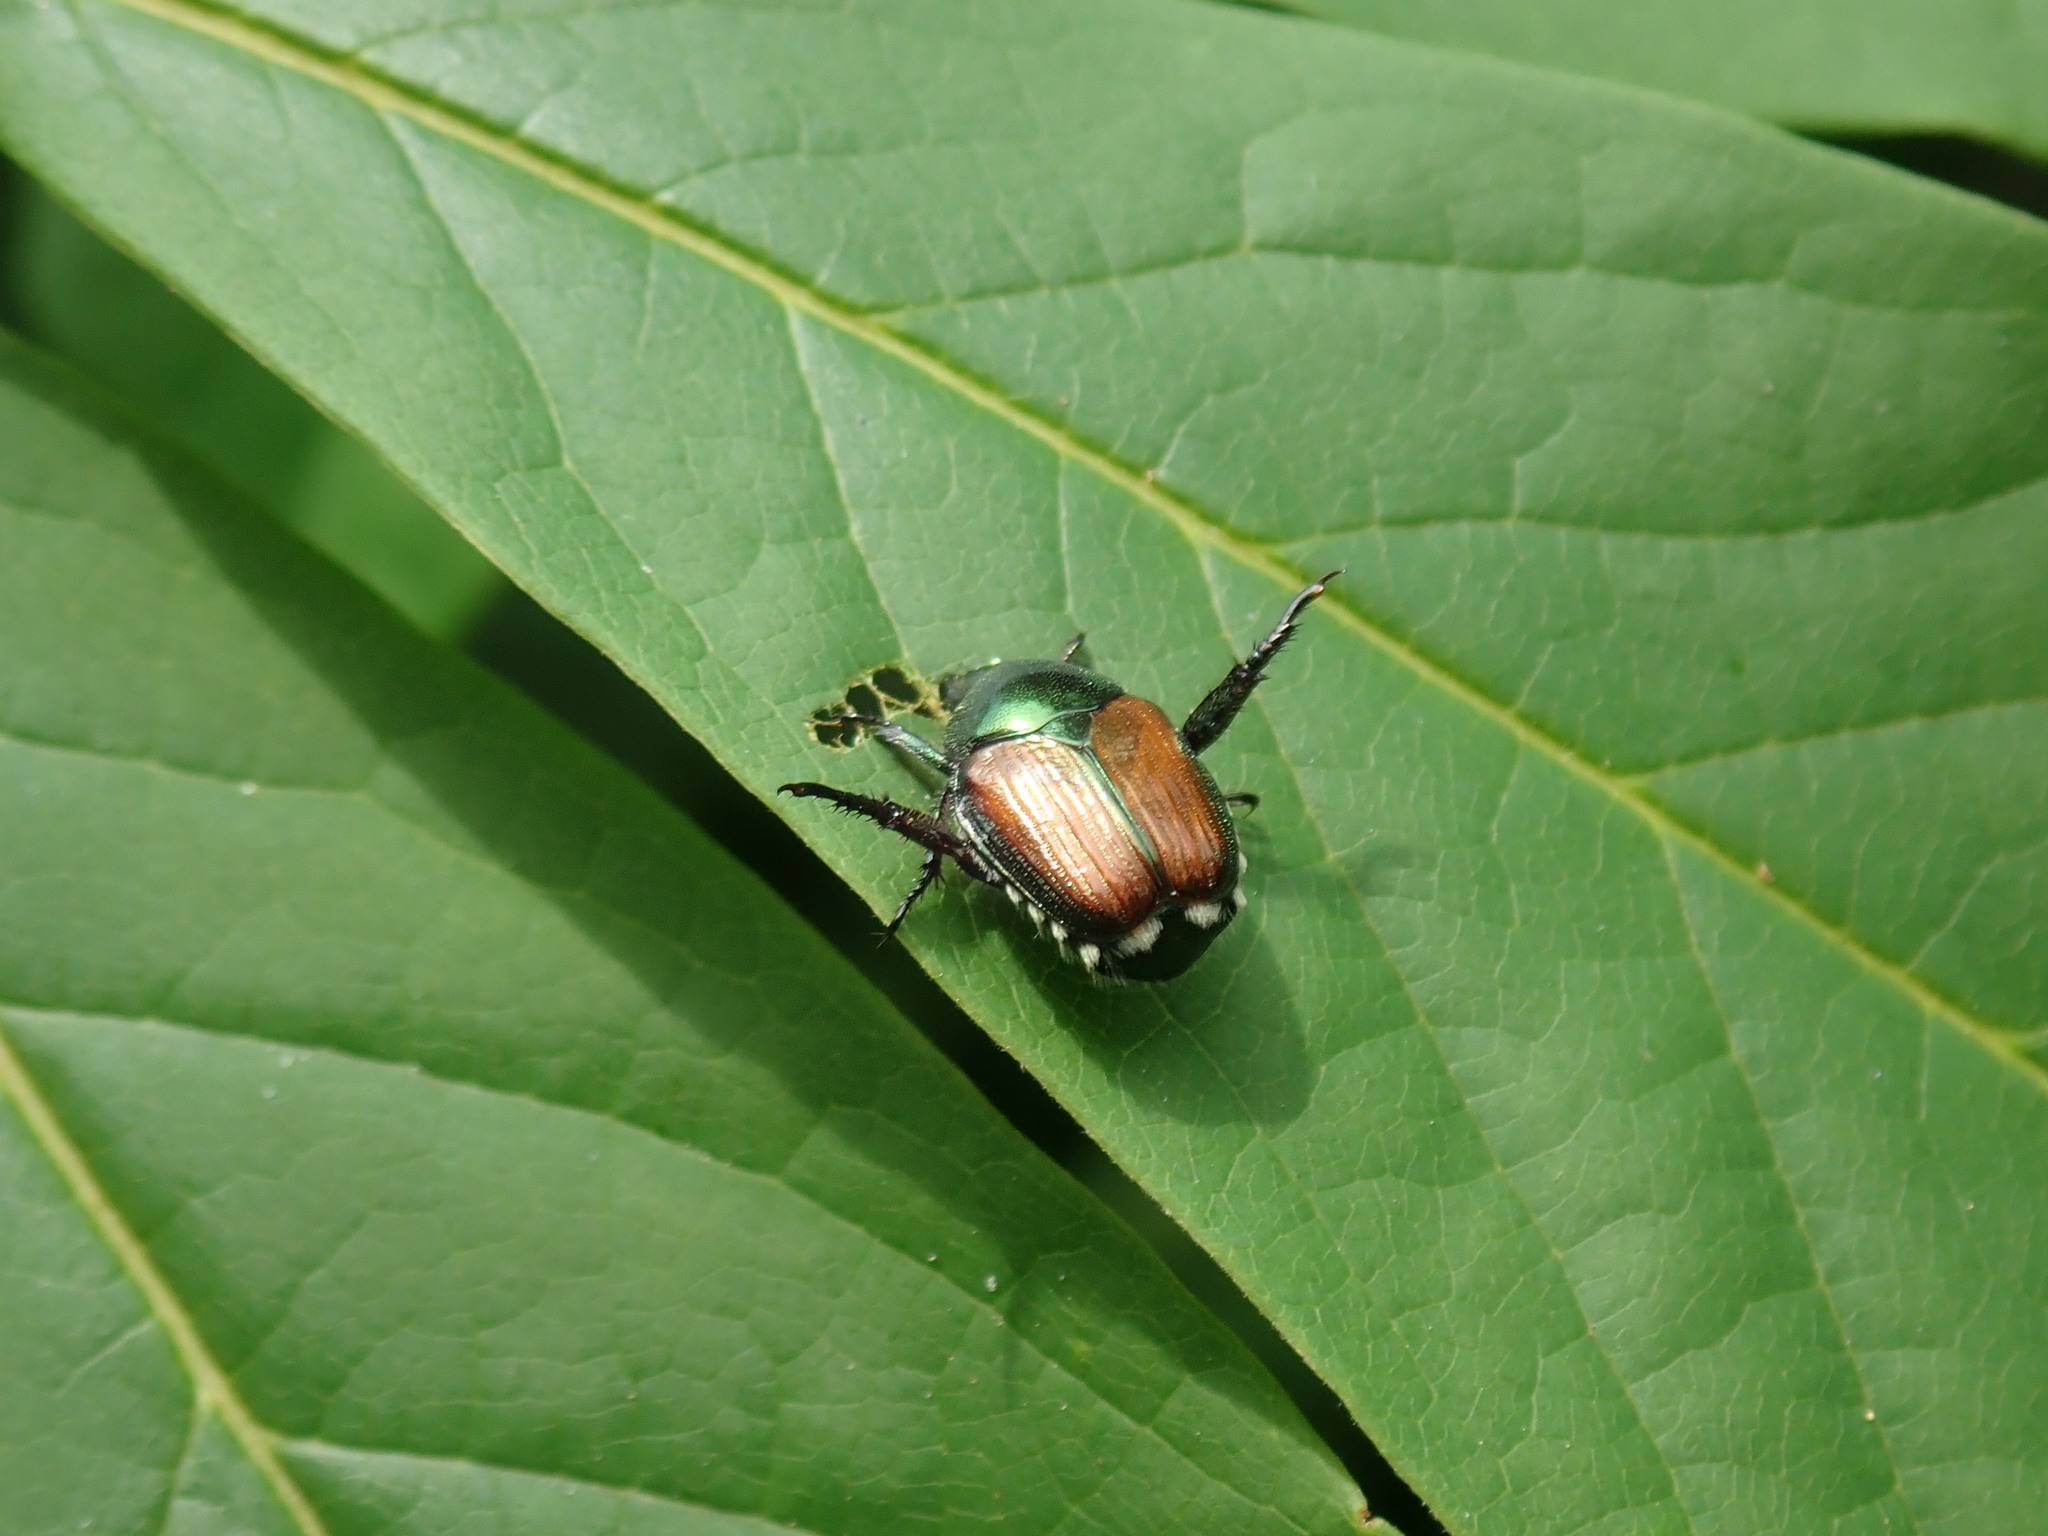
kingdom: Animalia
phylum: Arthropoda
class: Insecta
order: Coleoptera
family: Scarabaeidae
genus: Popillia
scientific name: Popillia japonica
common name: Japanese beetle
